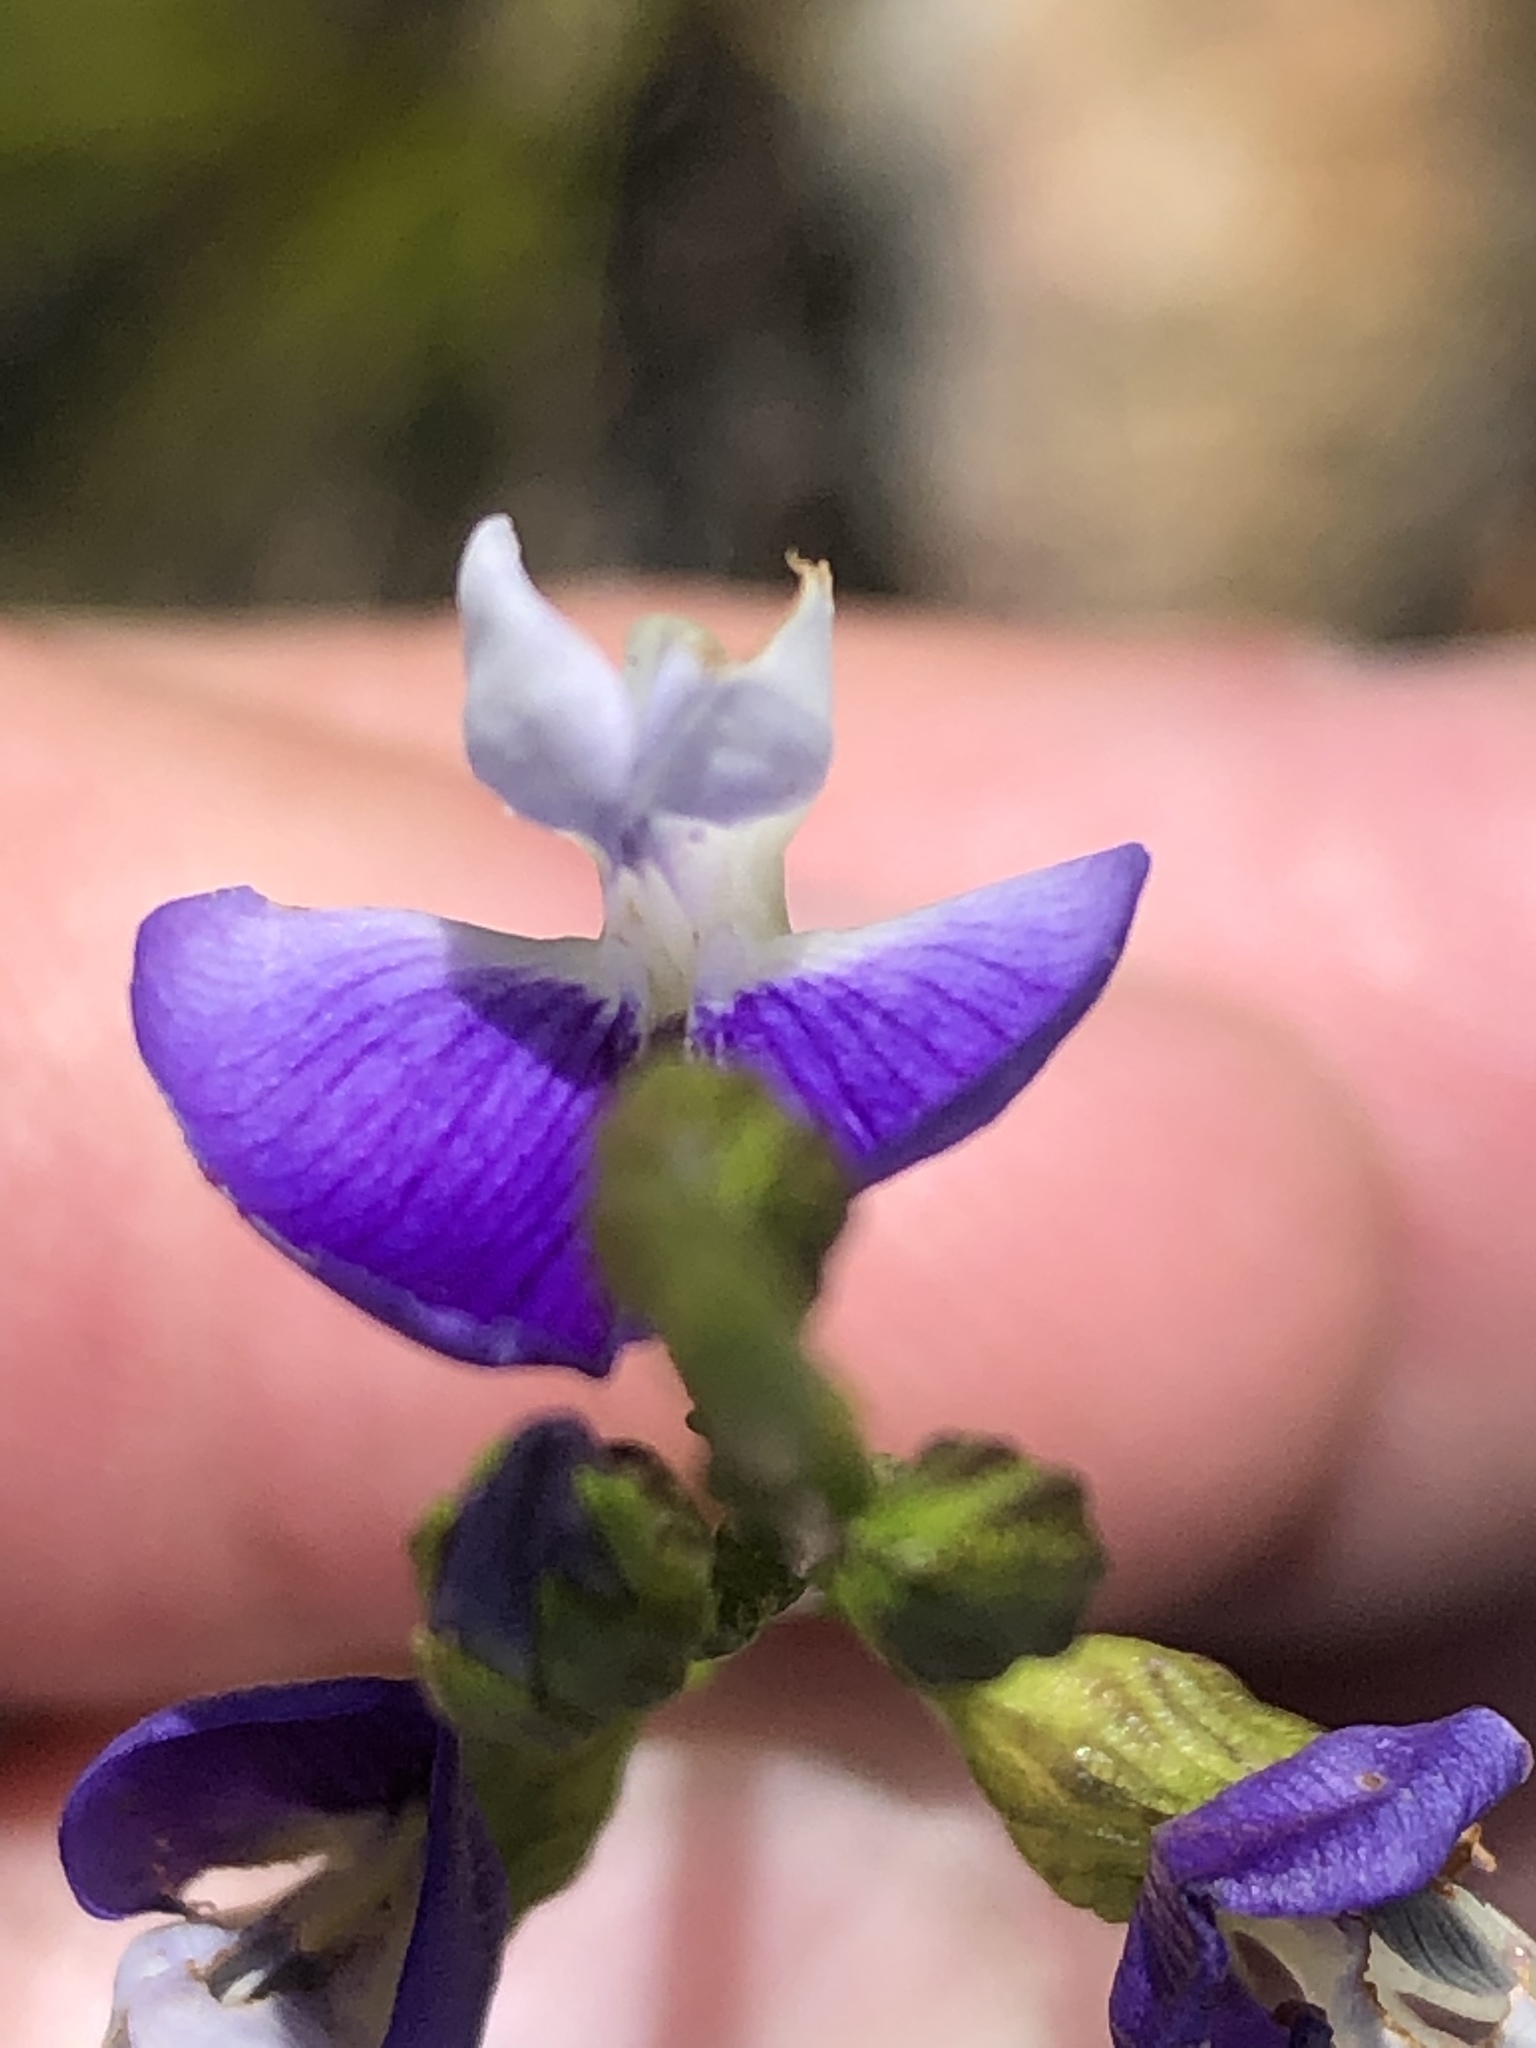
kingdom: Plantae
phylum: Tracheophyta
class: Magnoliopsida
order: Fabales
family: Fabaceae
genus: Psoralea
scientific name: Psoralea usitata
